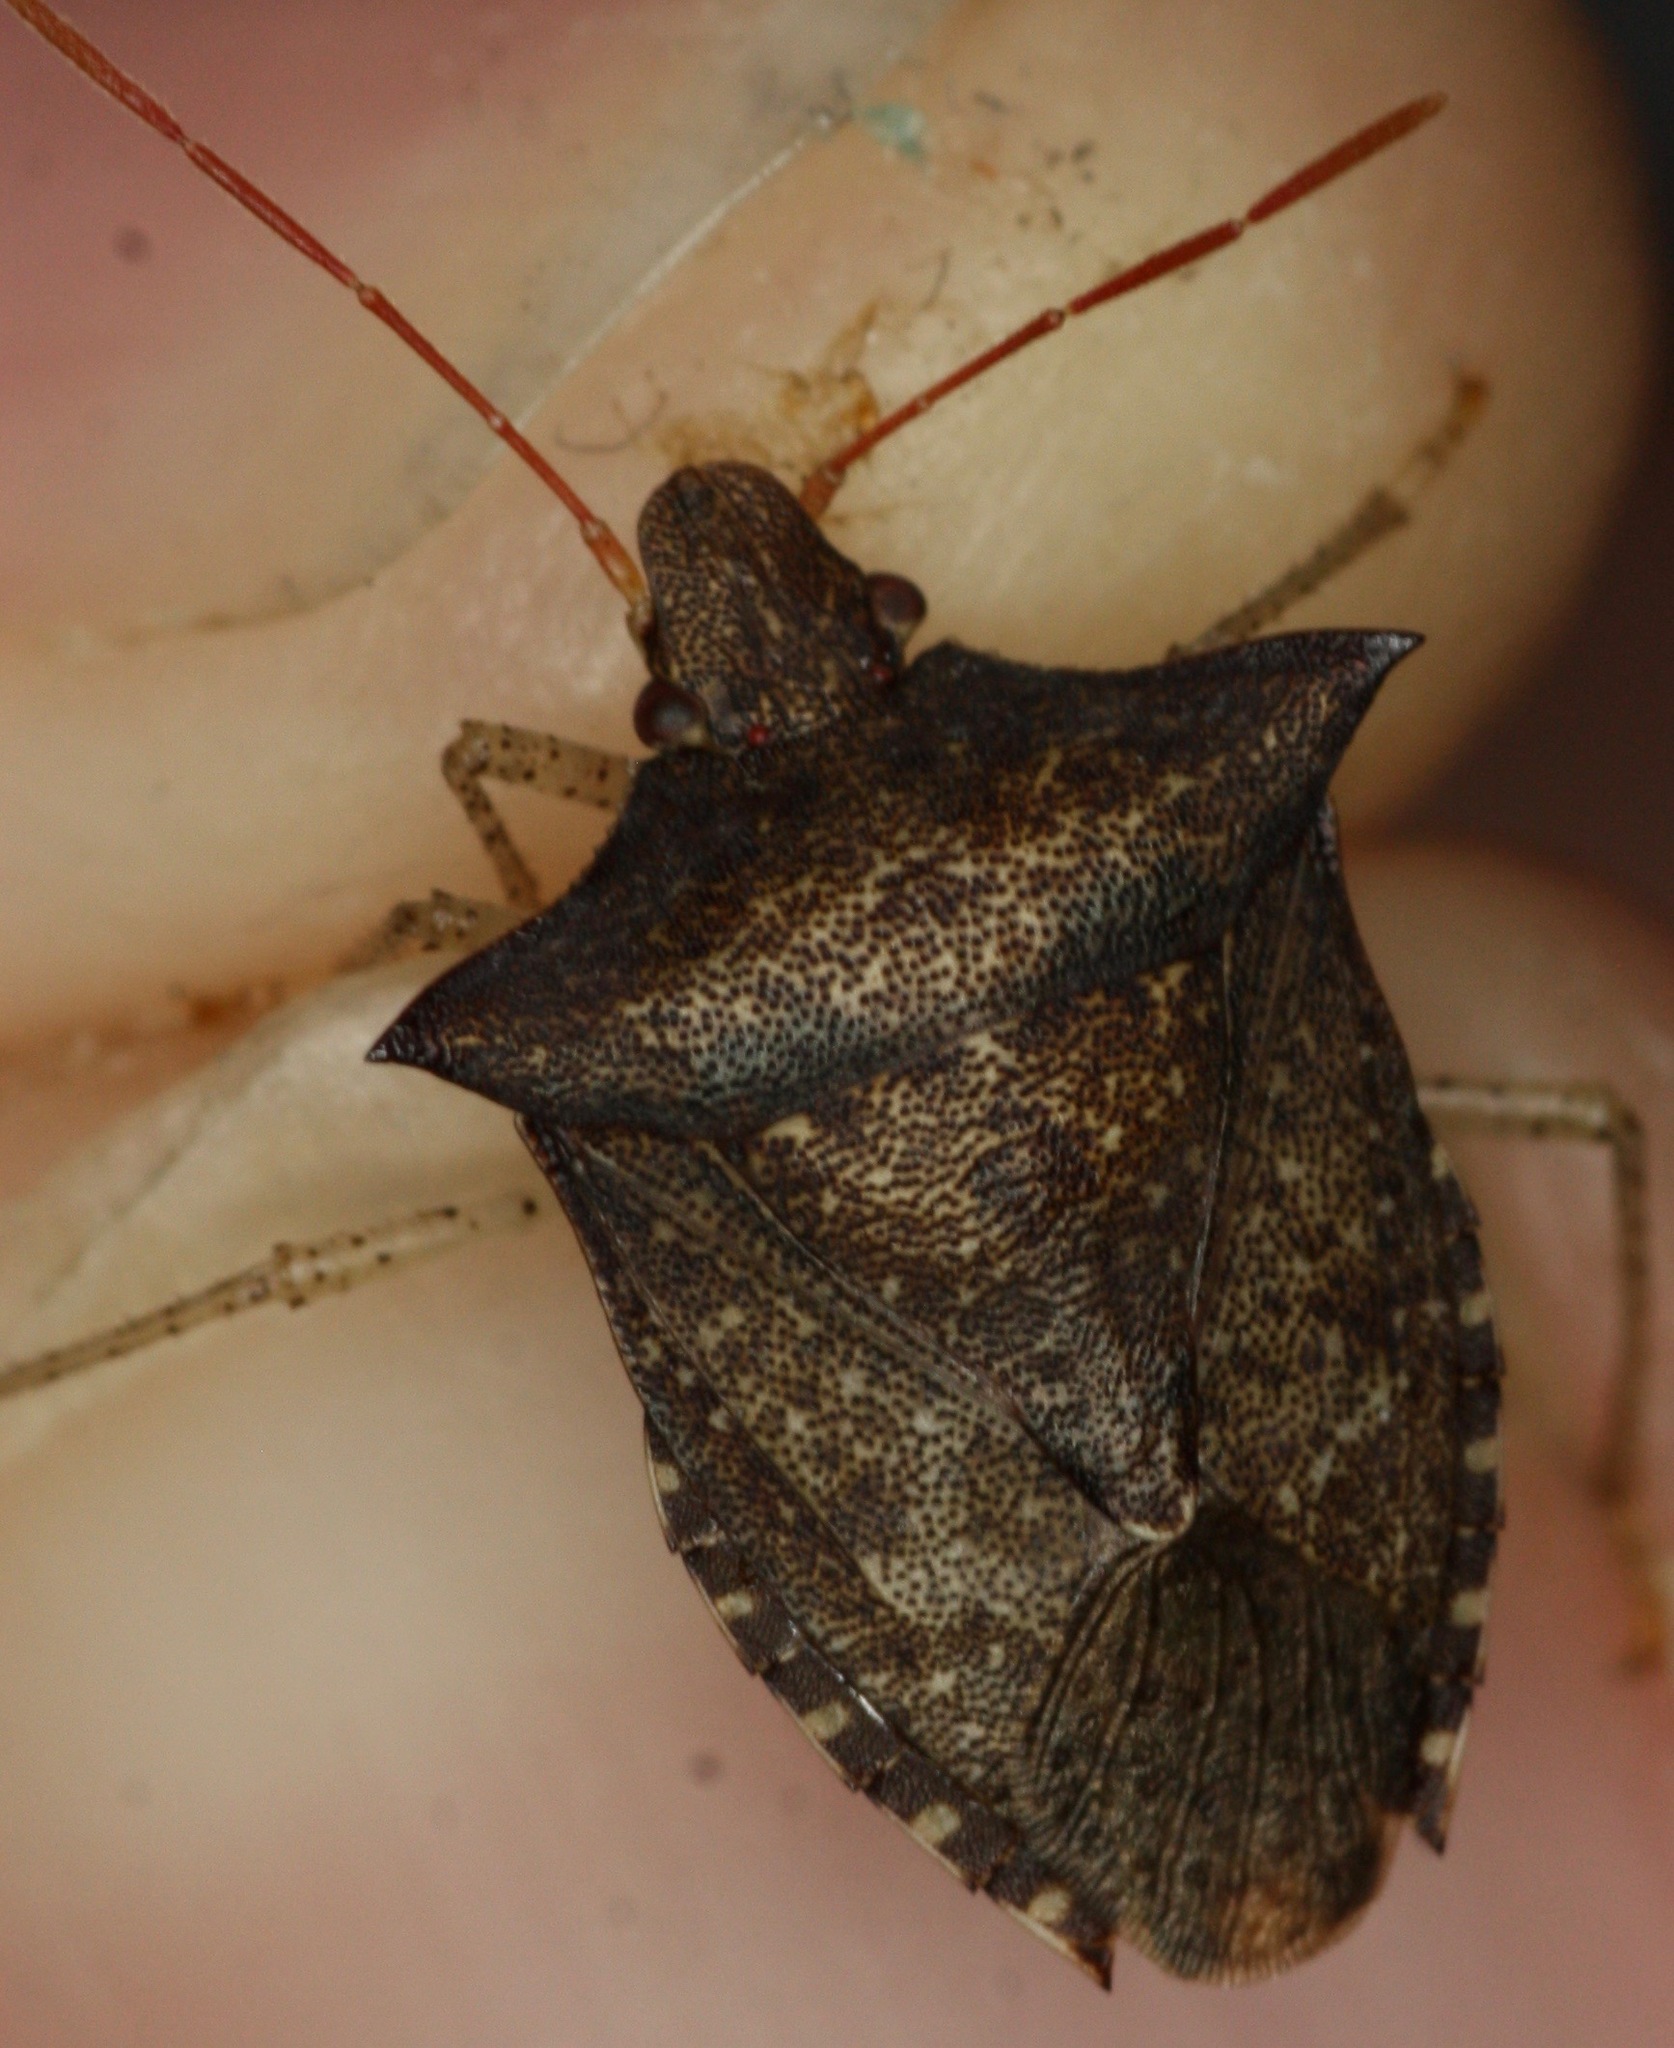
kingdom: Animalia
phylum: Arthropoda
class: Insecta
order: Hemiptera
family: Pentatomidae
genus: Euschistus
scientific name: Euschistus tristigmus
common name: Dusky stink bug
